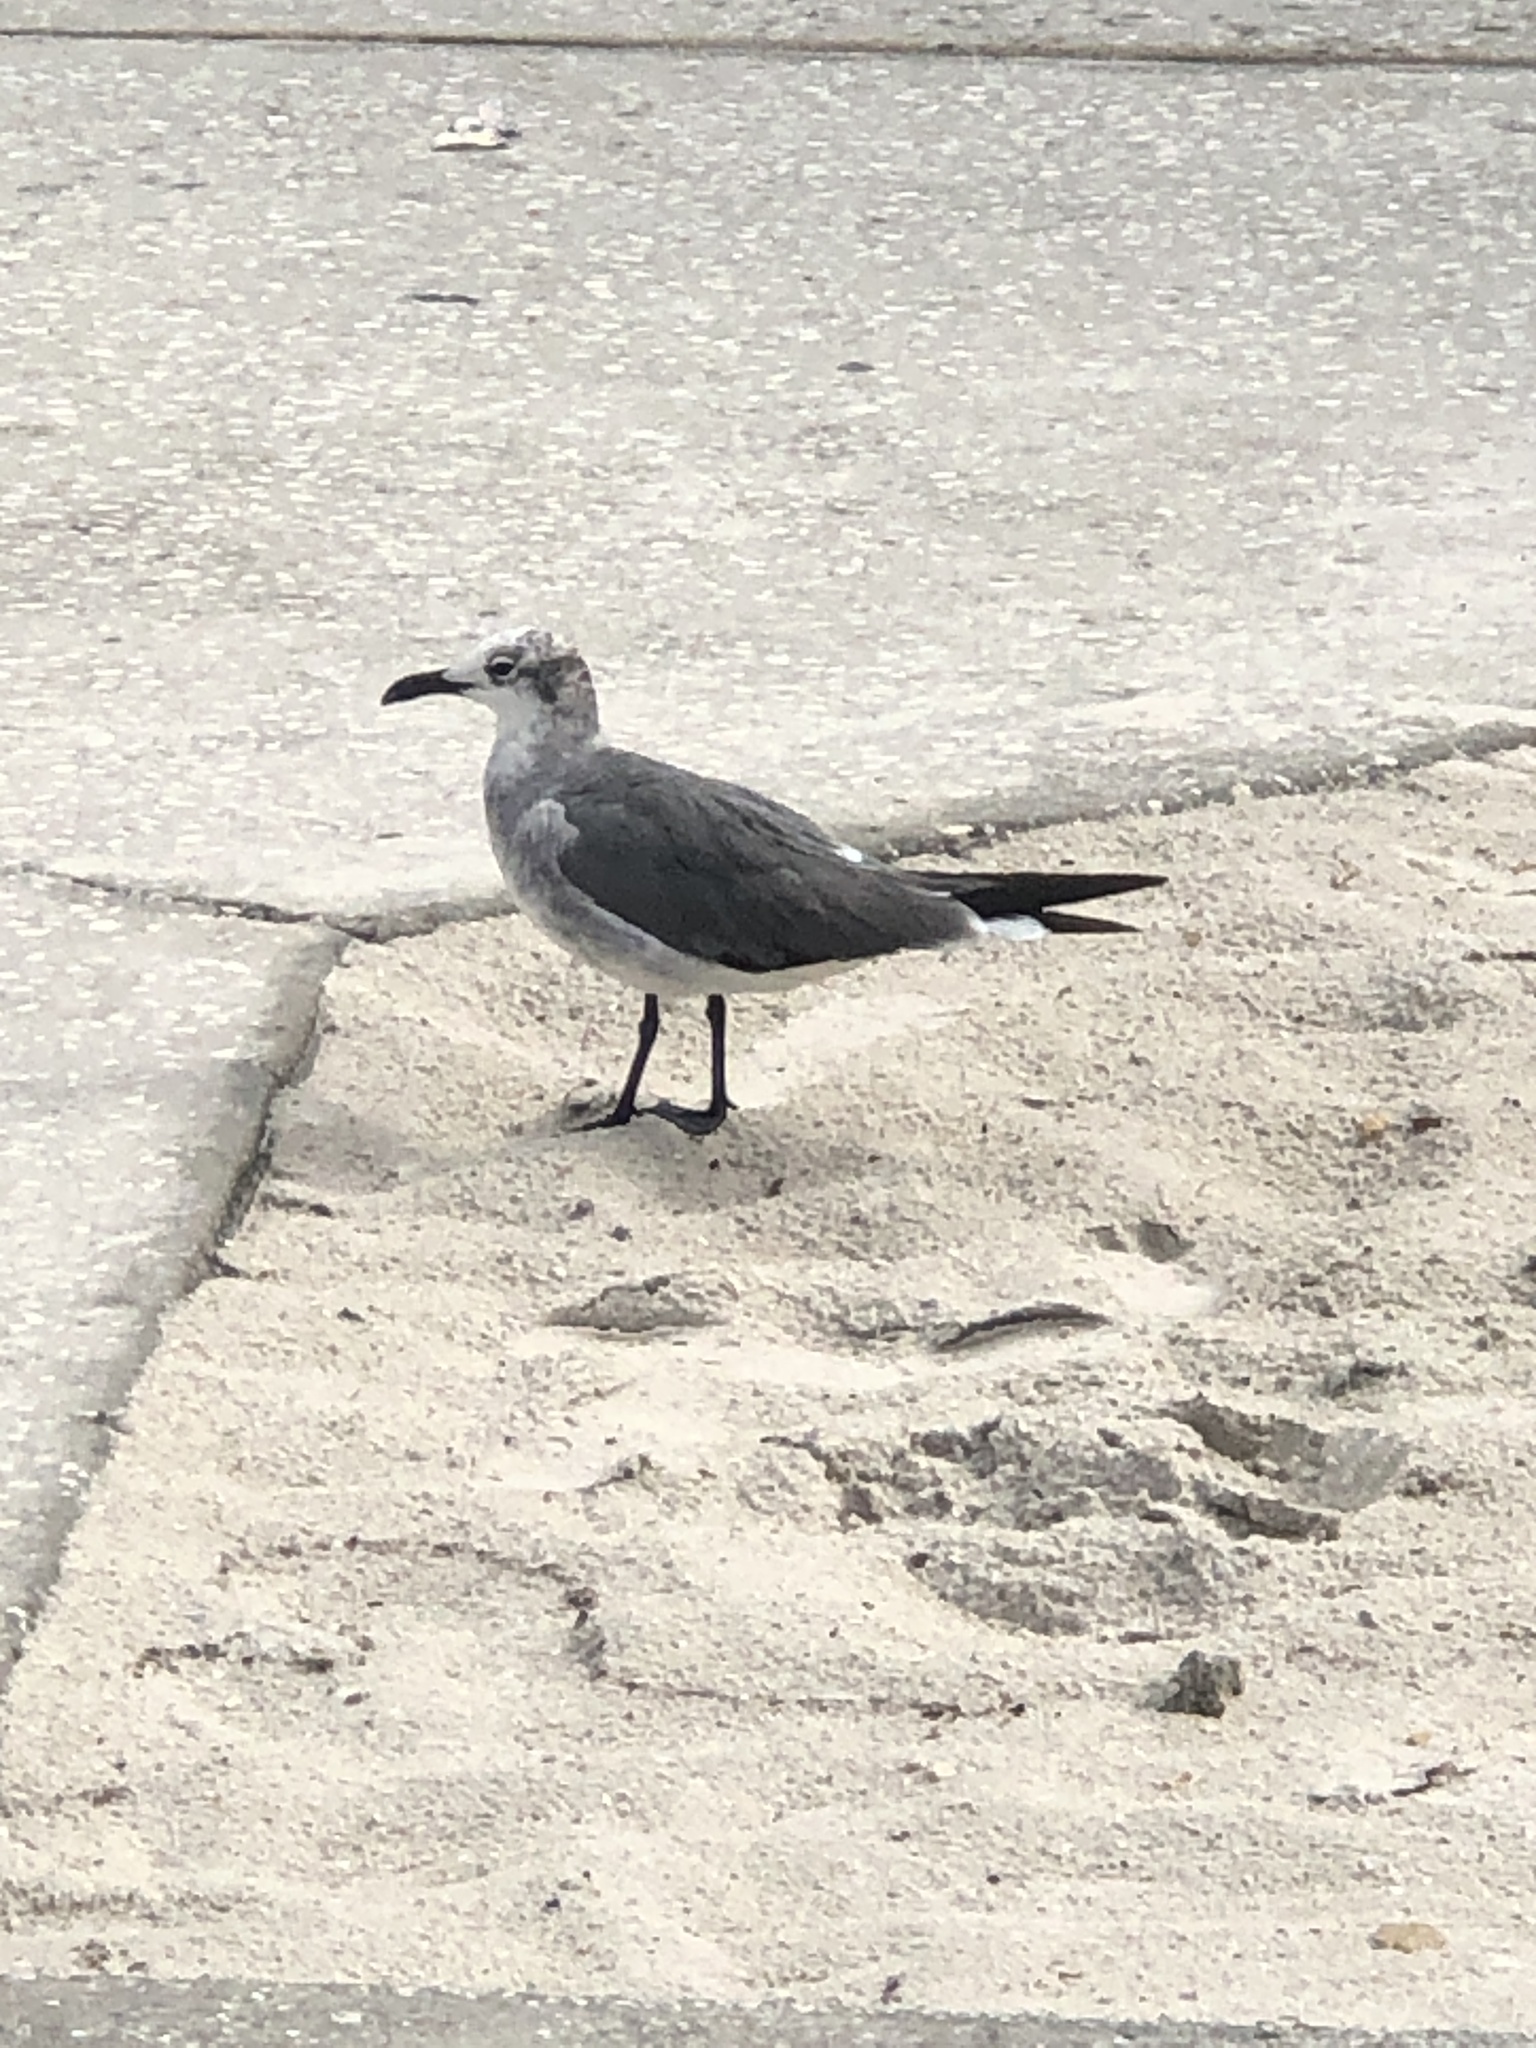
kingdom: Animalia
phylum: Chordata
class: Aves
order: Charadriiformes
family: Laridae
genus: Leucophaeus
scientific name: Leucophaeus atricilla
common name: Laughing gull
